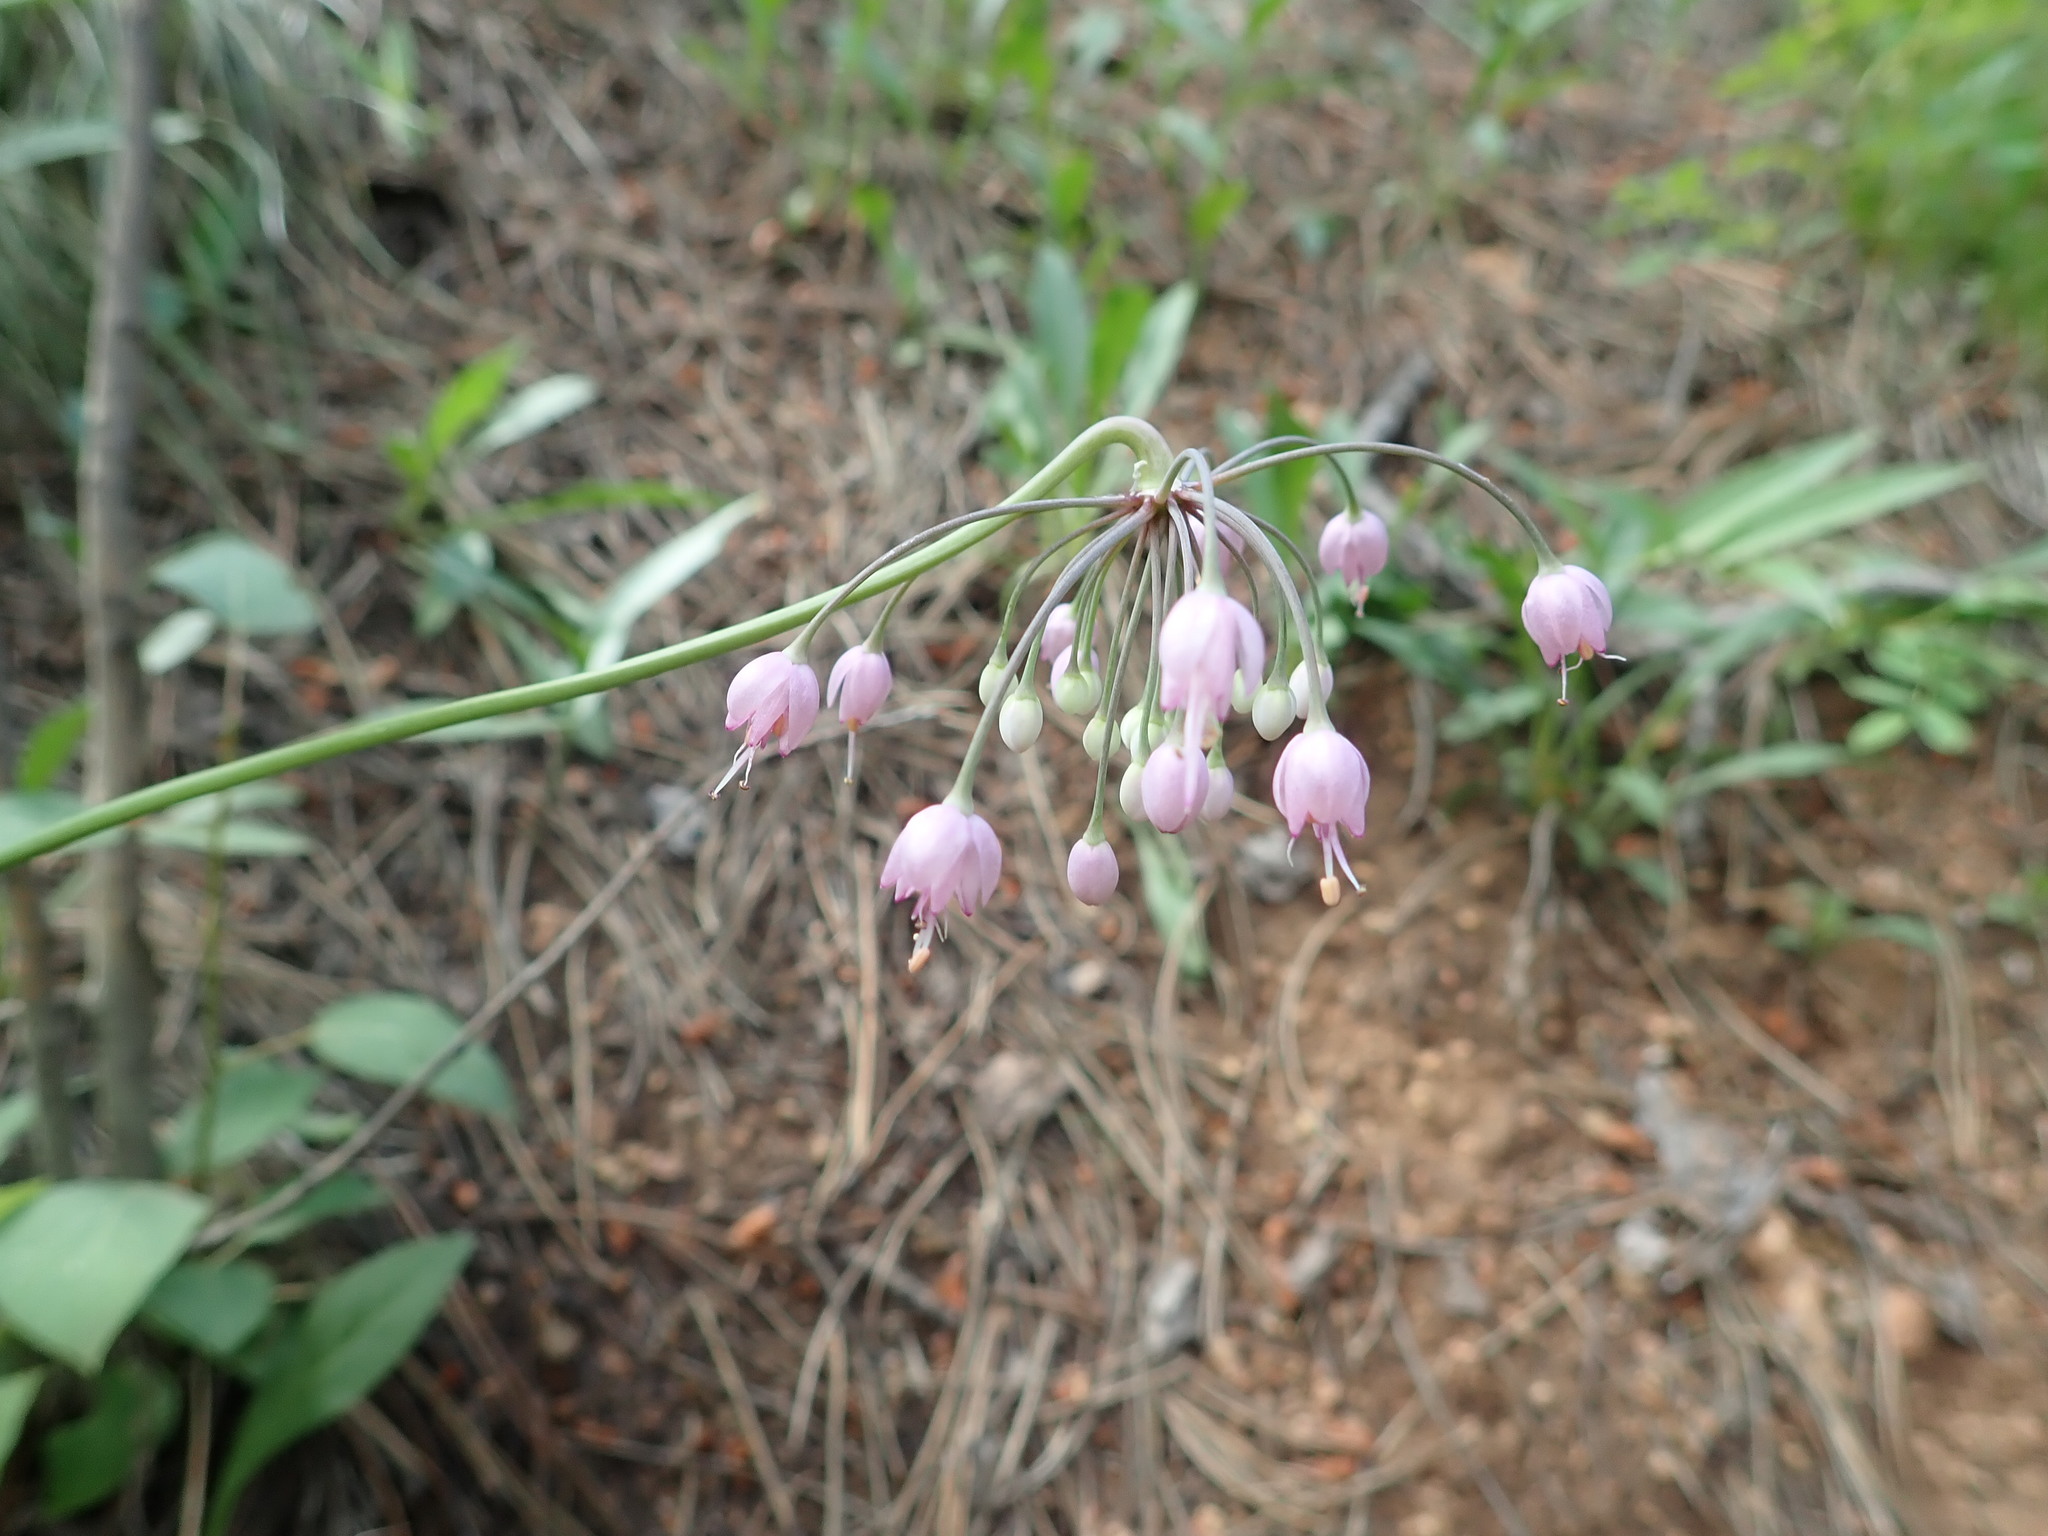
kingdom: Plantae
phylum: Tracheophyta
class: Liliopsida
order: Asparagales
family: Amaryllidaceae
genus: Allium
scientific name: Allium cernuum
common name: Nodding onion
